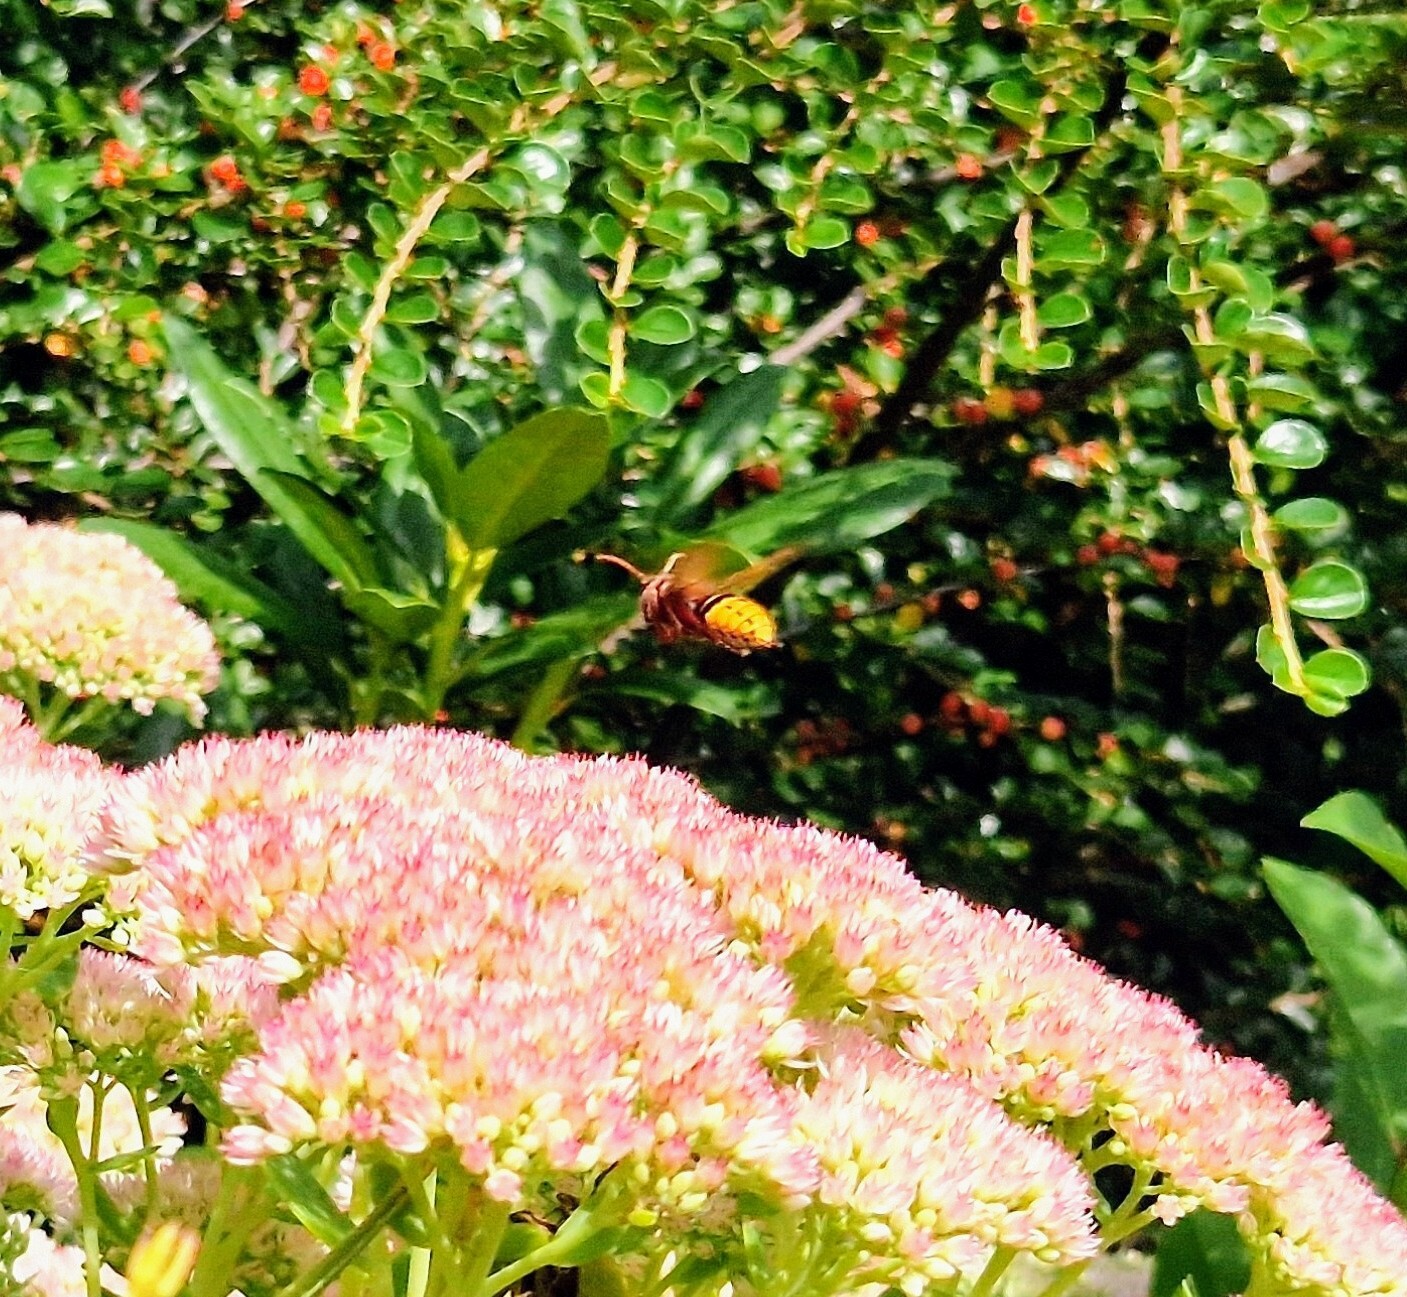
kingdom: Animalia
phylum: Arthropoda
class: Insecta
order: Hymenoptera
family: Vespidae
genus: Vespa
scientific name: Vespa crabro
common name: Hornet
